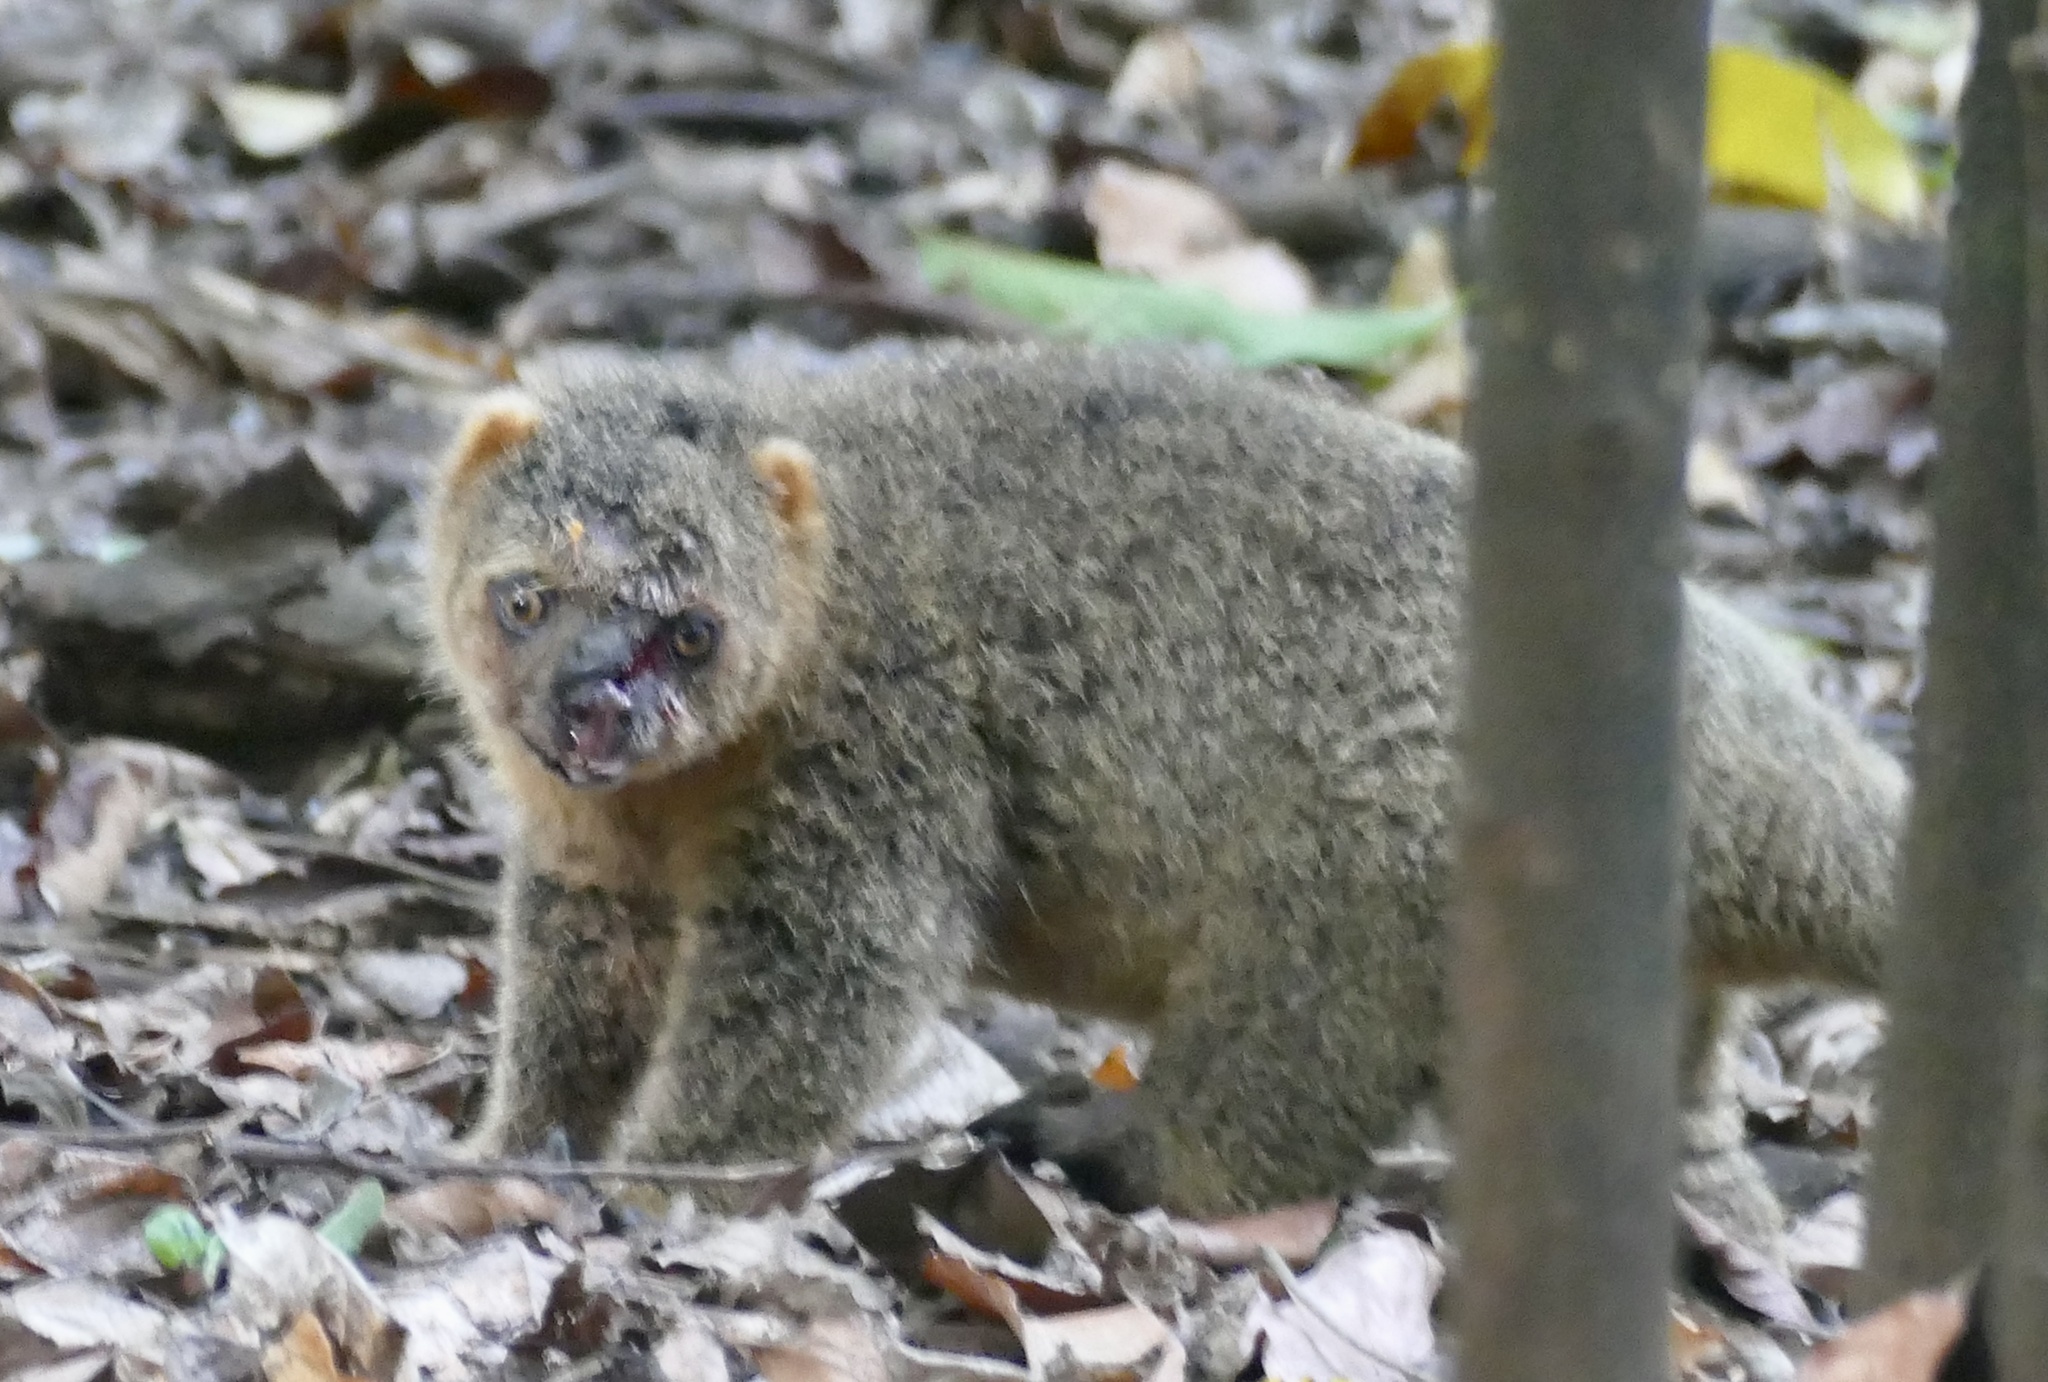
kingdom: Animalia
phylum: Chordata
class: Mammalia
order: Diprotodontia
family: Phalangeridae
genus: Ailurops
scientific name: Ailurops ursinus
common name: Sulawesi bear cuscus
